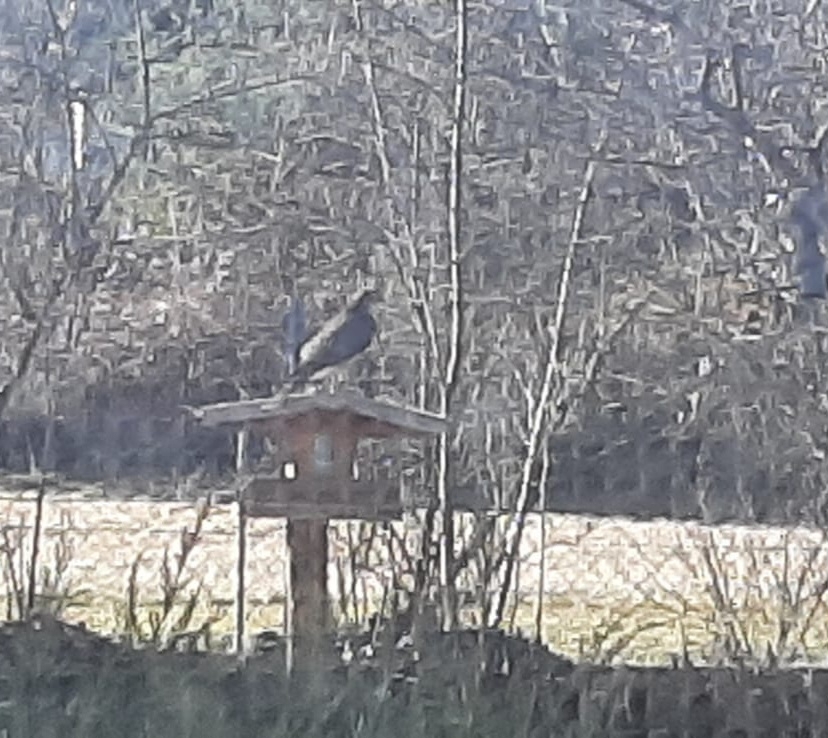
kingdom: Animalia
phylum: Chordata
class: Aves
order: Accipitriformes
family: Accipitridae
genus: Accipiter
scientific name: Accipiter nisus
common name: Eurasian sparrowhawk
